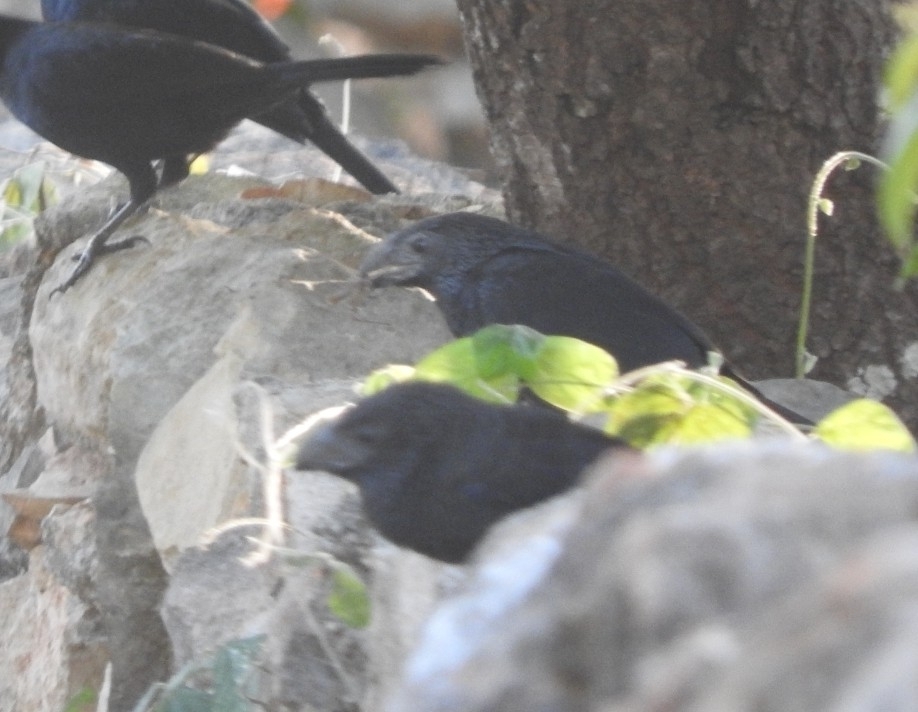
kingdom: Animalia
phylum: Chordata
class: Aves
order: Cuculiformes
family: Cuculidae
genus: Crotophaga
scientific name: Crotophaga sulcirostris
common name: Groove-billed ani
